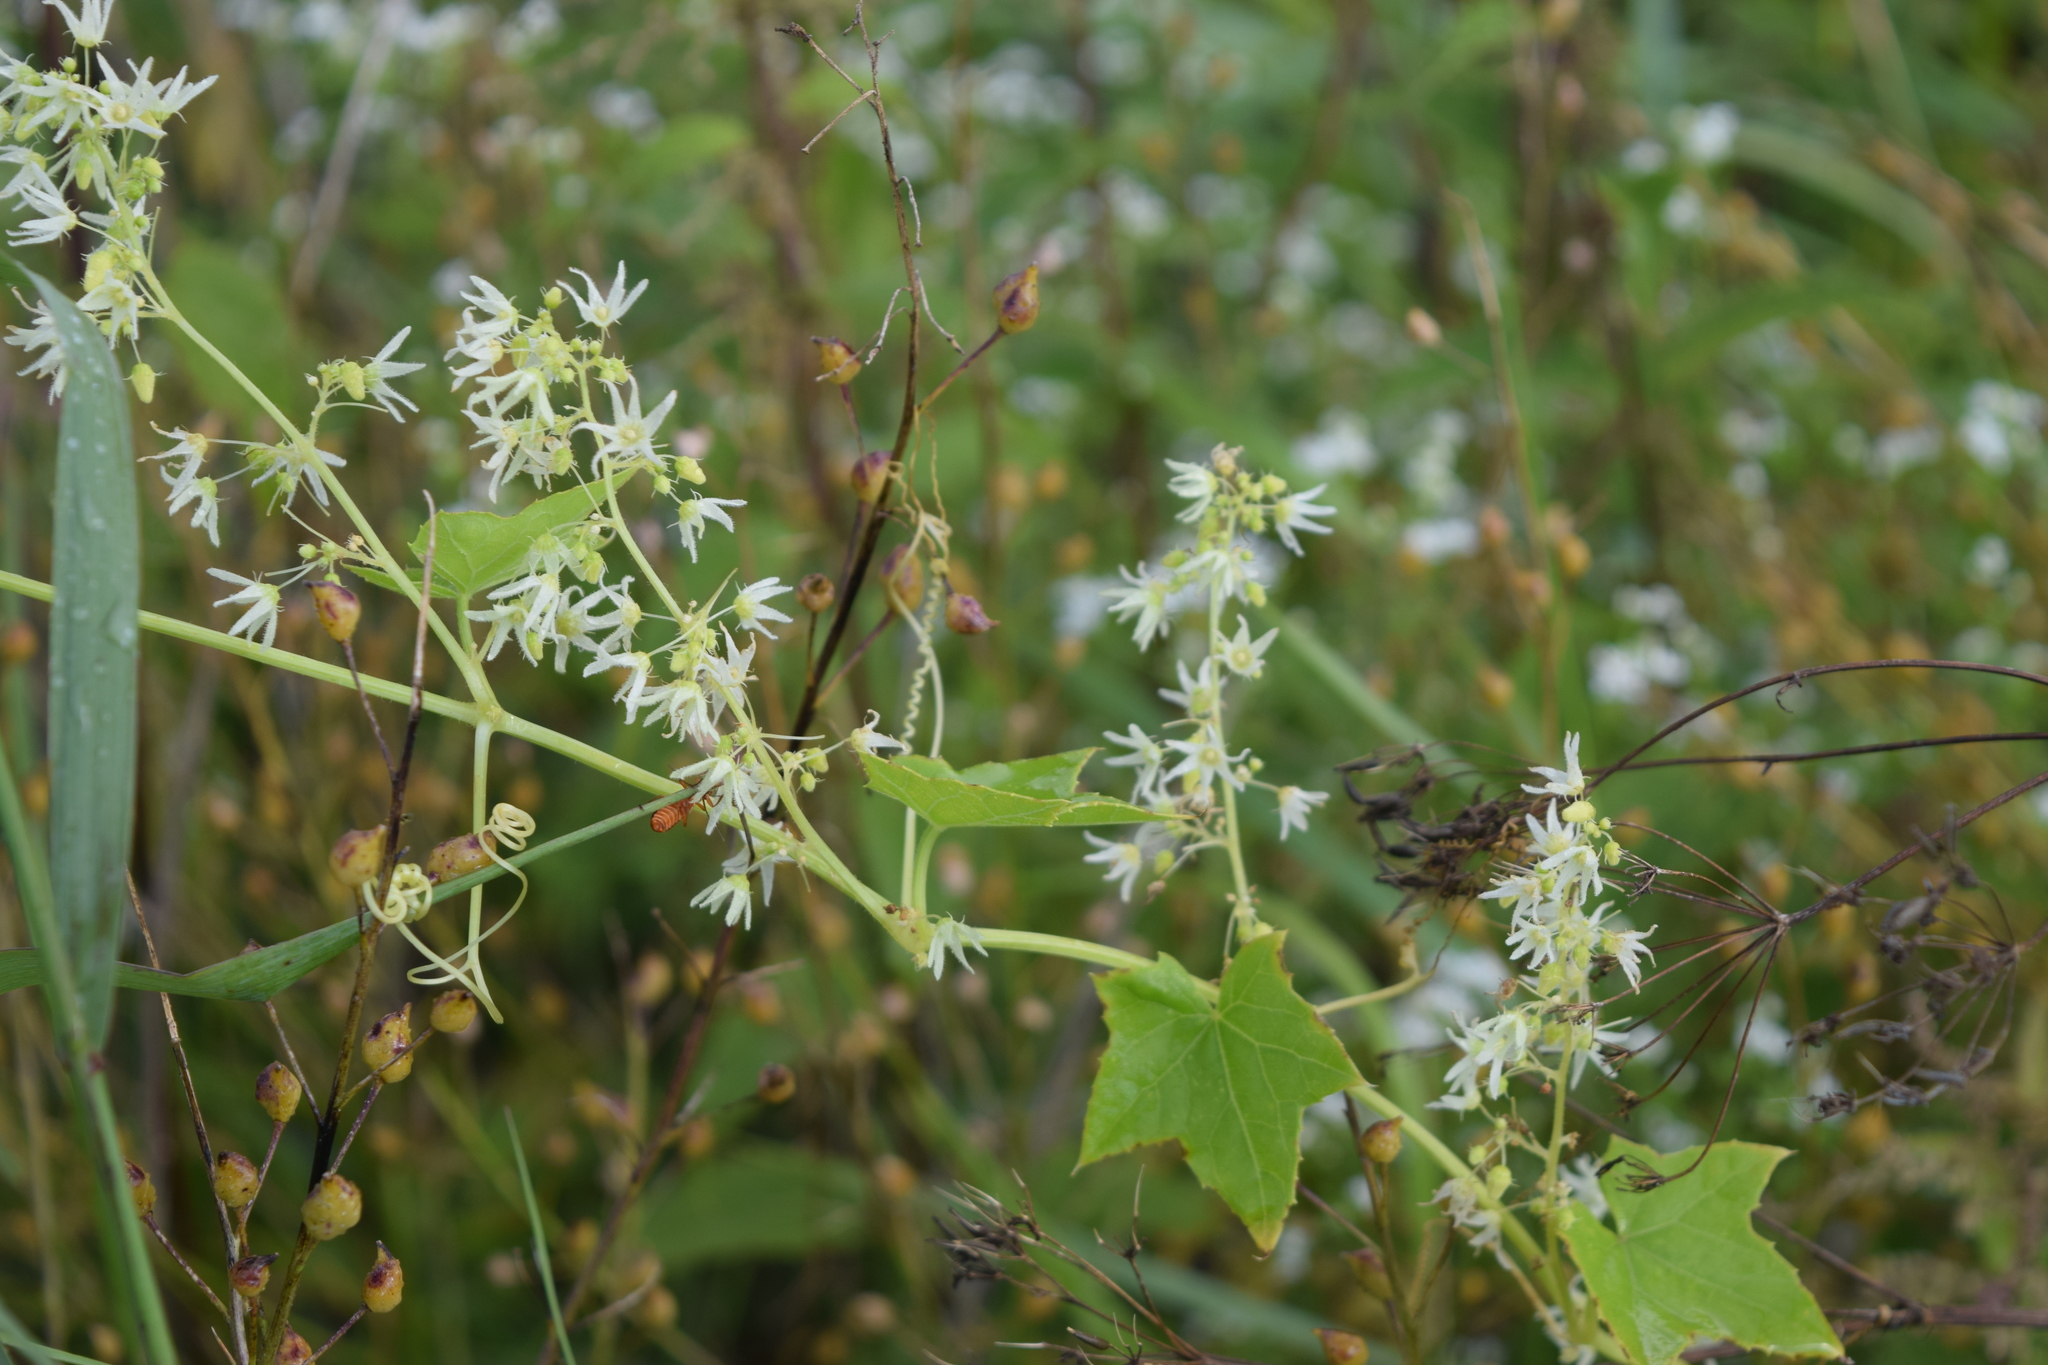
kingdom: Plantae
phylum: Tracheophyta
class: Magnoliopsida
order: Cucurbitales
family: Cucurbitaceae
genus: Echinocystis
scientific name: Echinocystis lobata
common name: Wild cucumber
